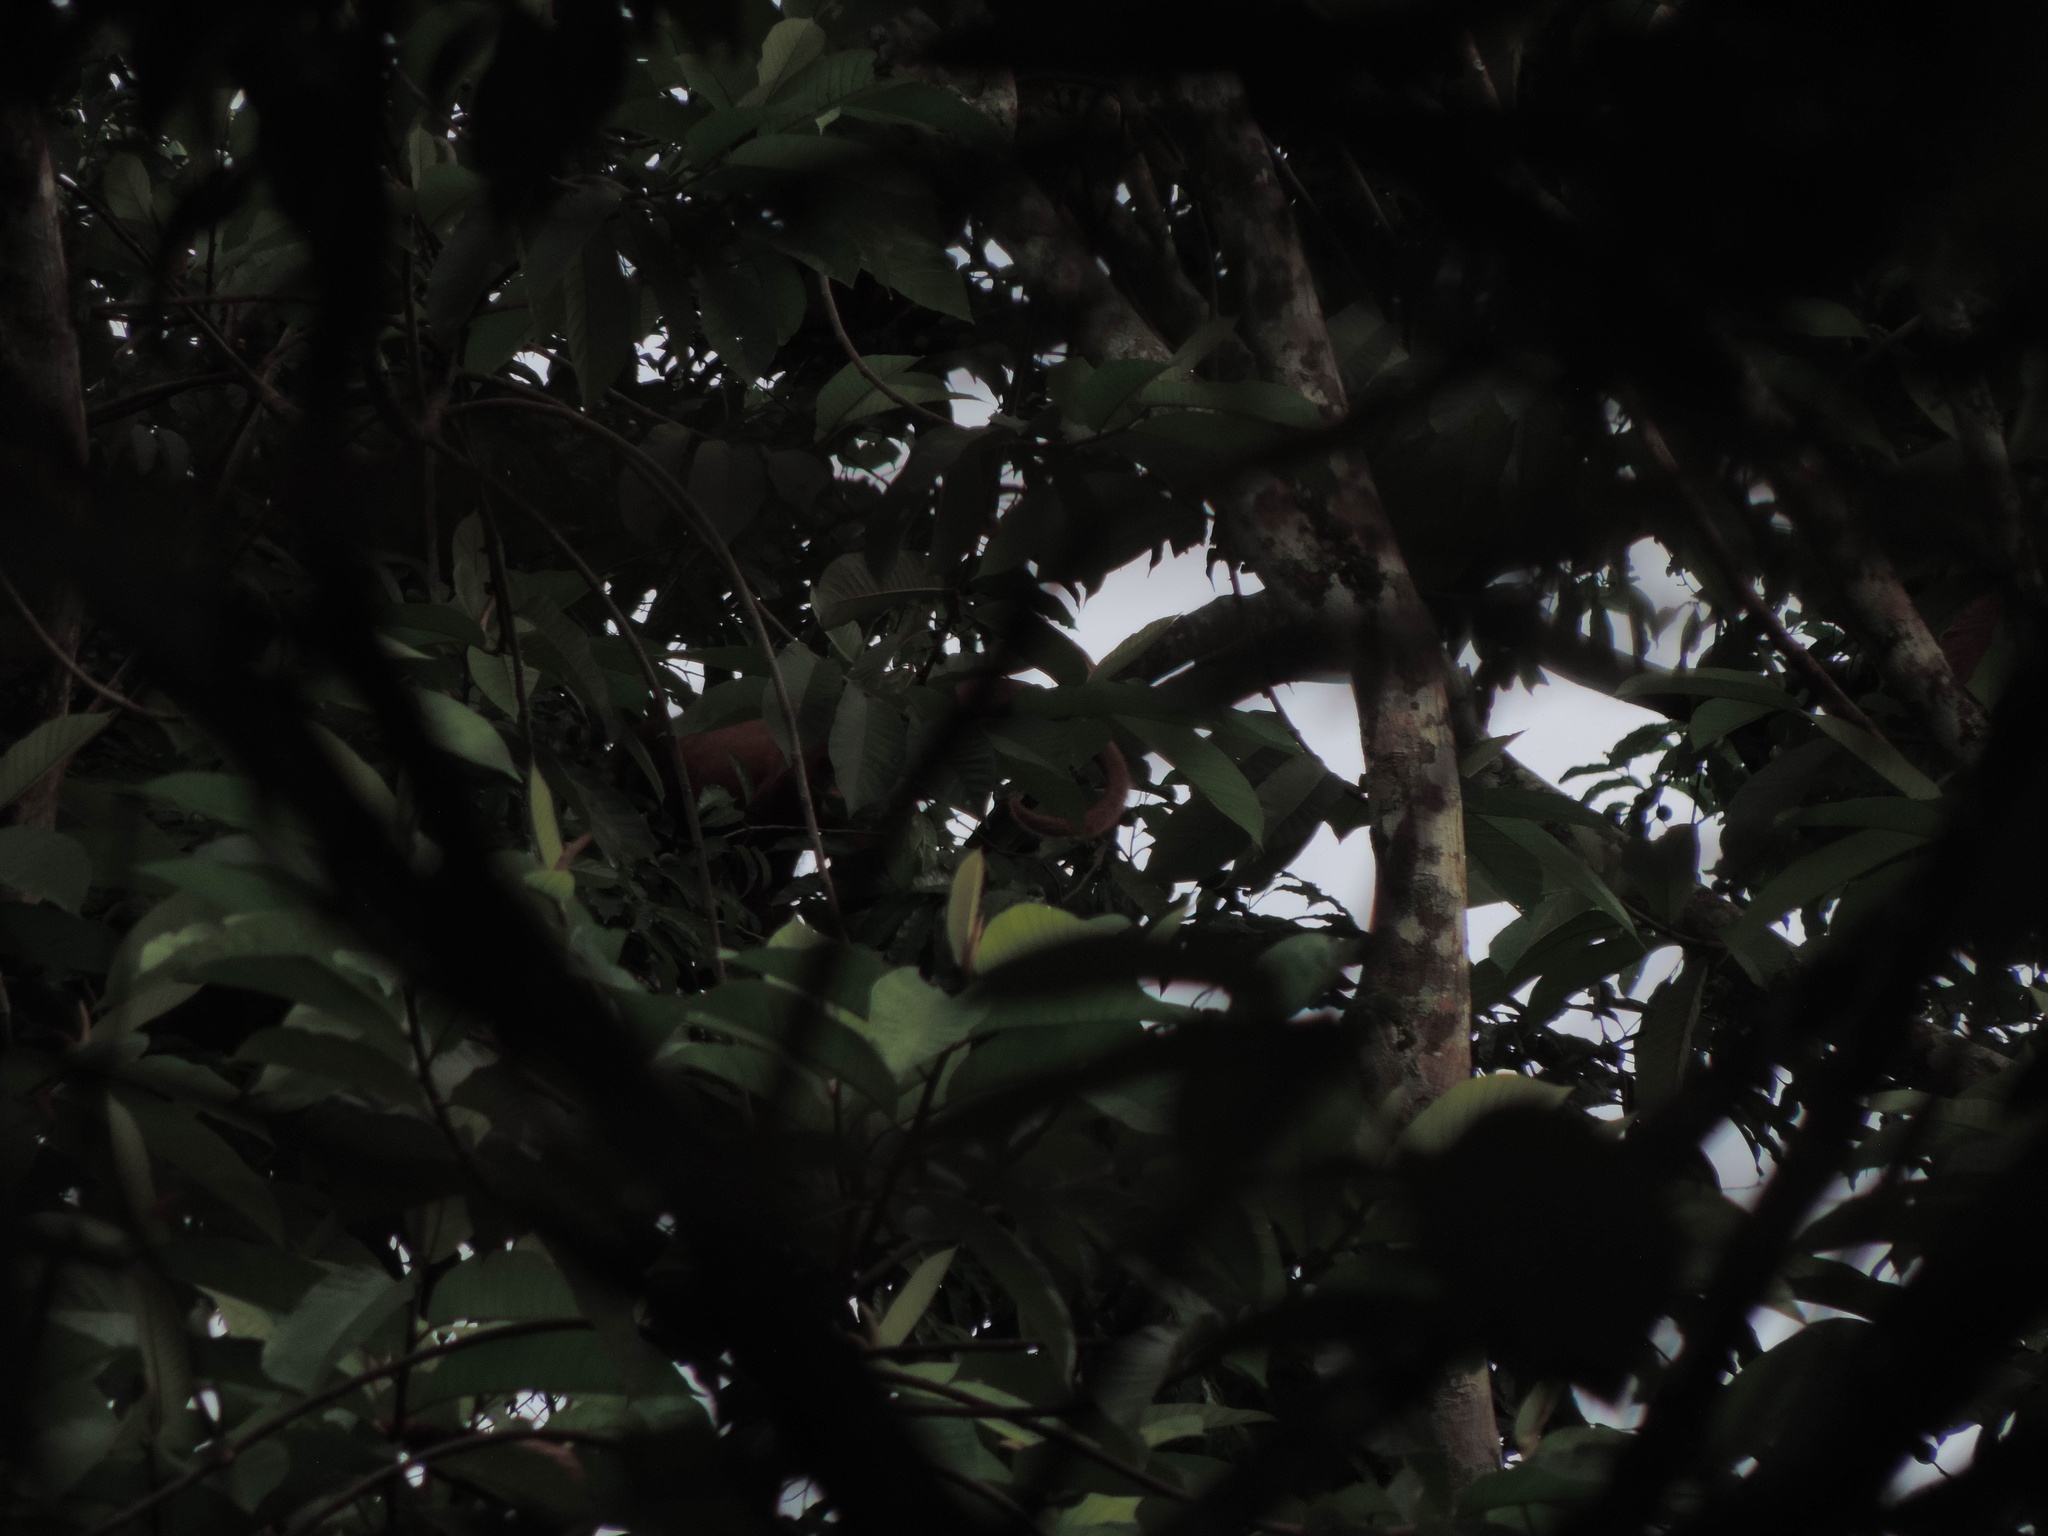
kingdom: Animalia
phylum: Chordata
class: Mammalia
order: Primates
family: Atelidae
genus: Alouatta
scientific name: Alouatta seniculus
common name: Venezuelan red howler
